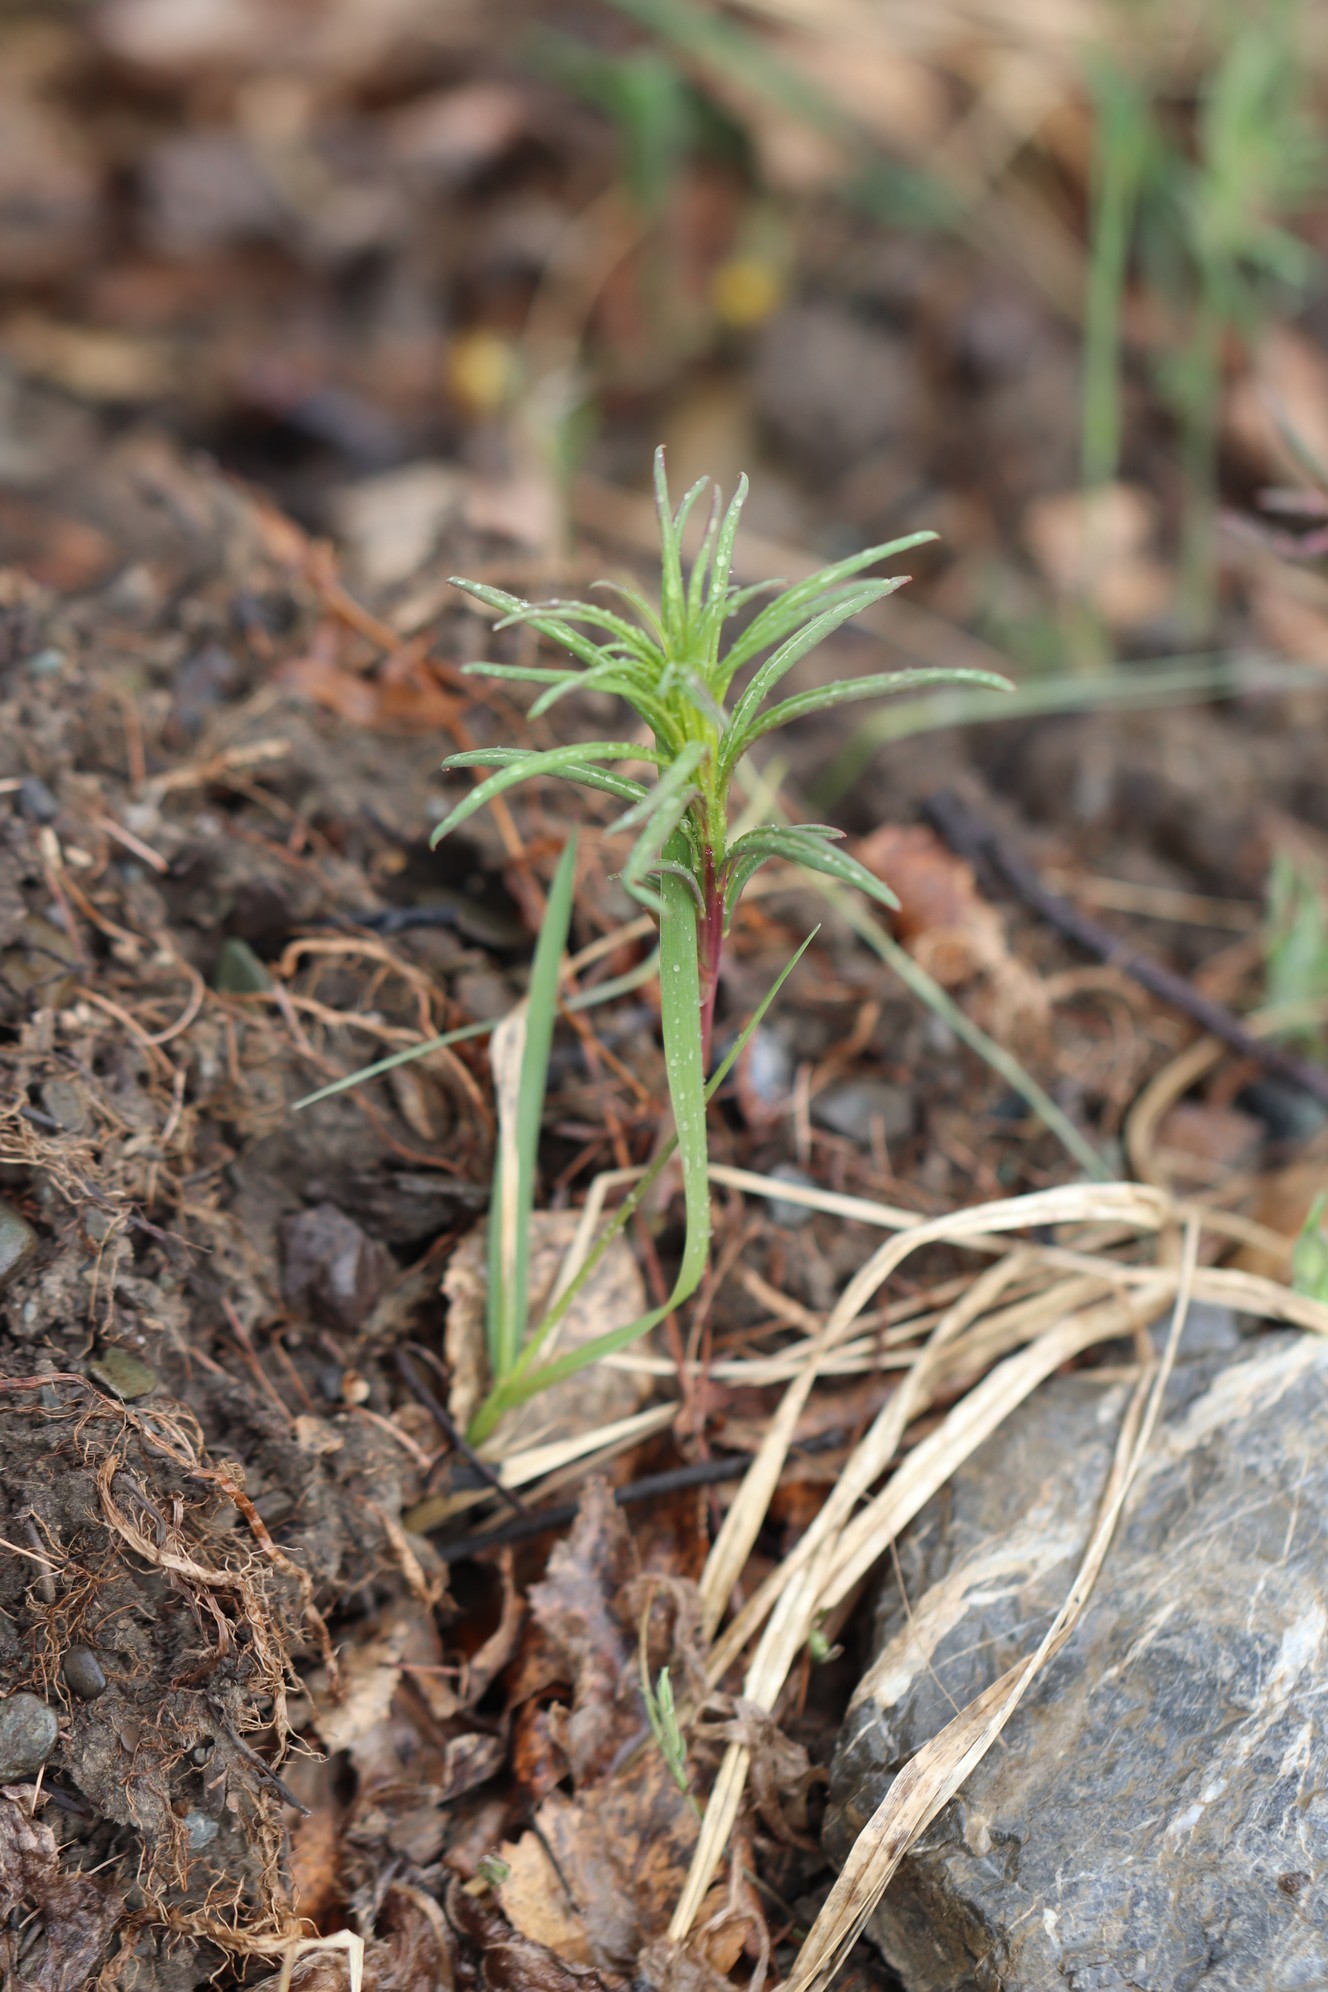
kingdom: Plantae
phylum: Tracheophyta
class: Magnoliopsida
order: Myrtales
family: Onagraceae
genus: Chamaenerion
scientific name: Chamaenerion angustifolium
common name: Fireweed
